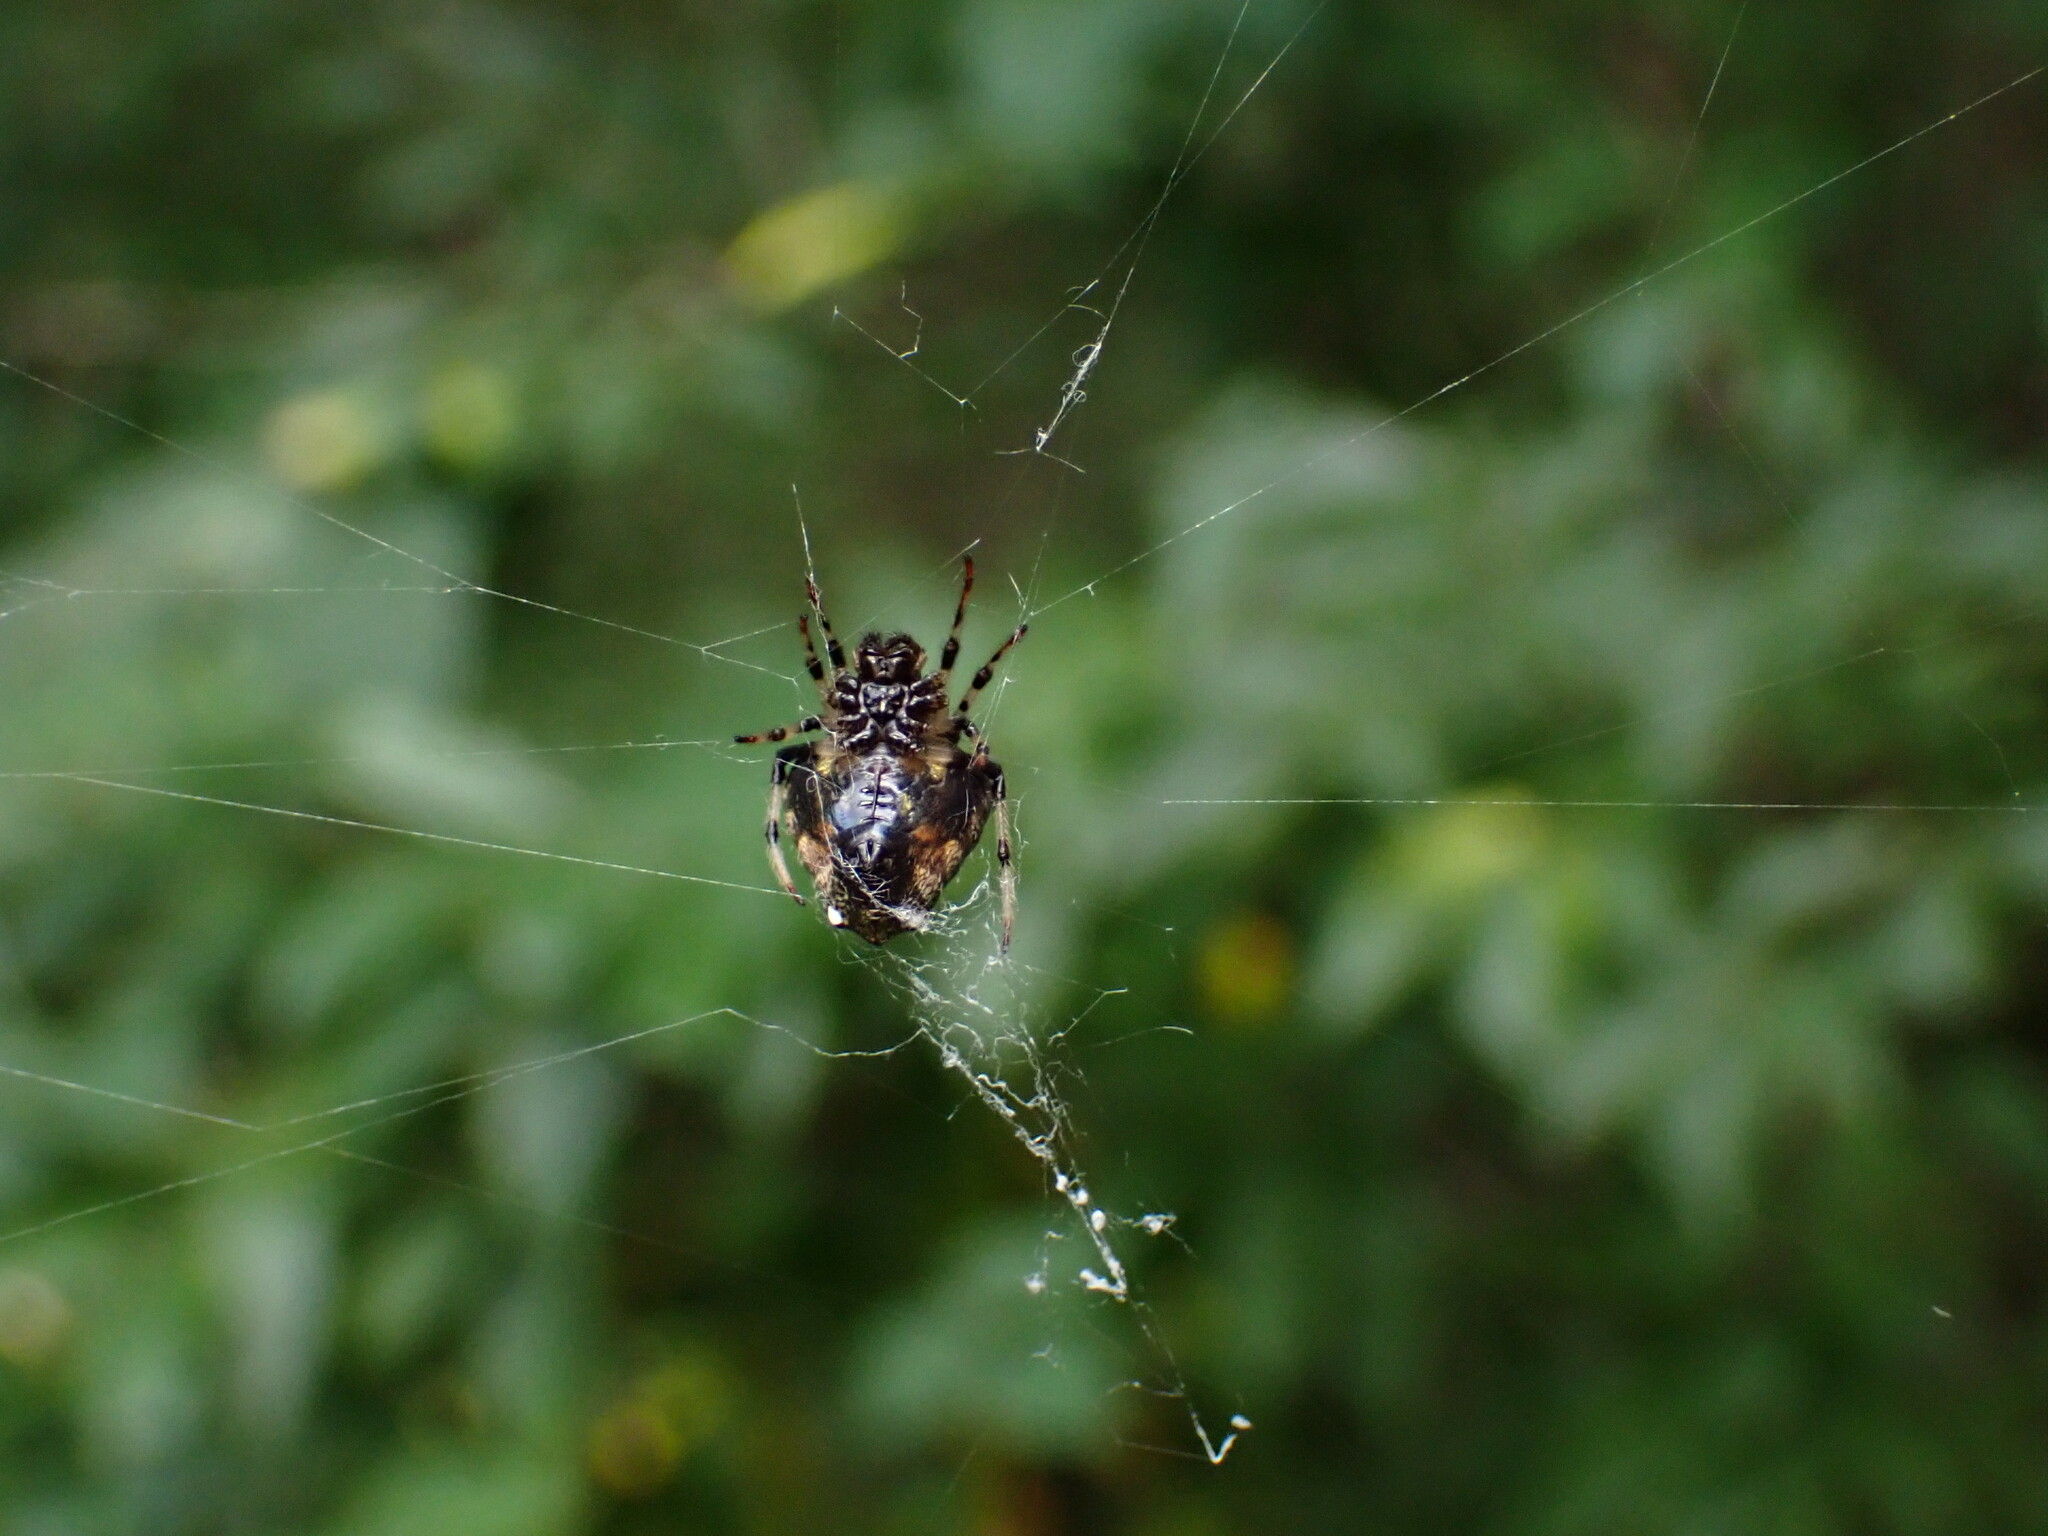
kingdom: Animalia
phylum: Arthropoda
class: Arachnida
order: Araneae
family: Araneidae
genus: Verrucosa
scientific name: Verrucosa arenata
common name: Orb weavers
